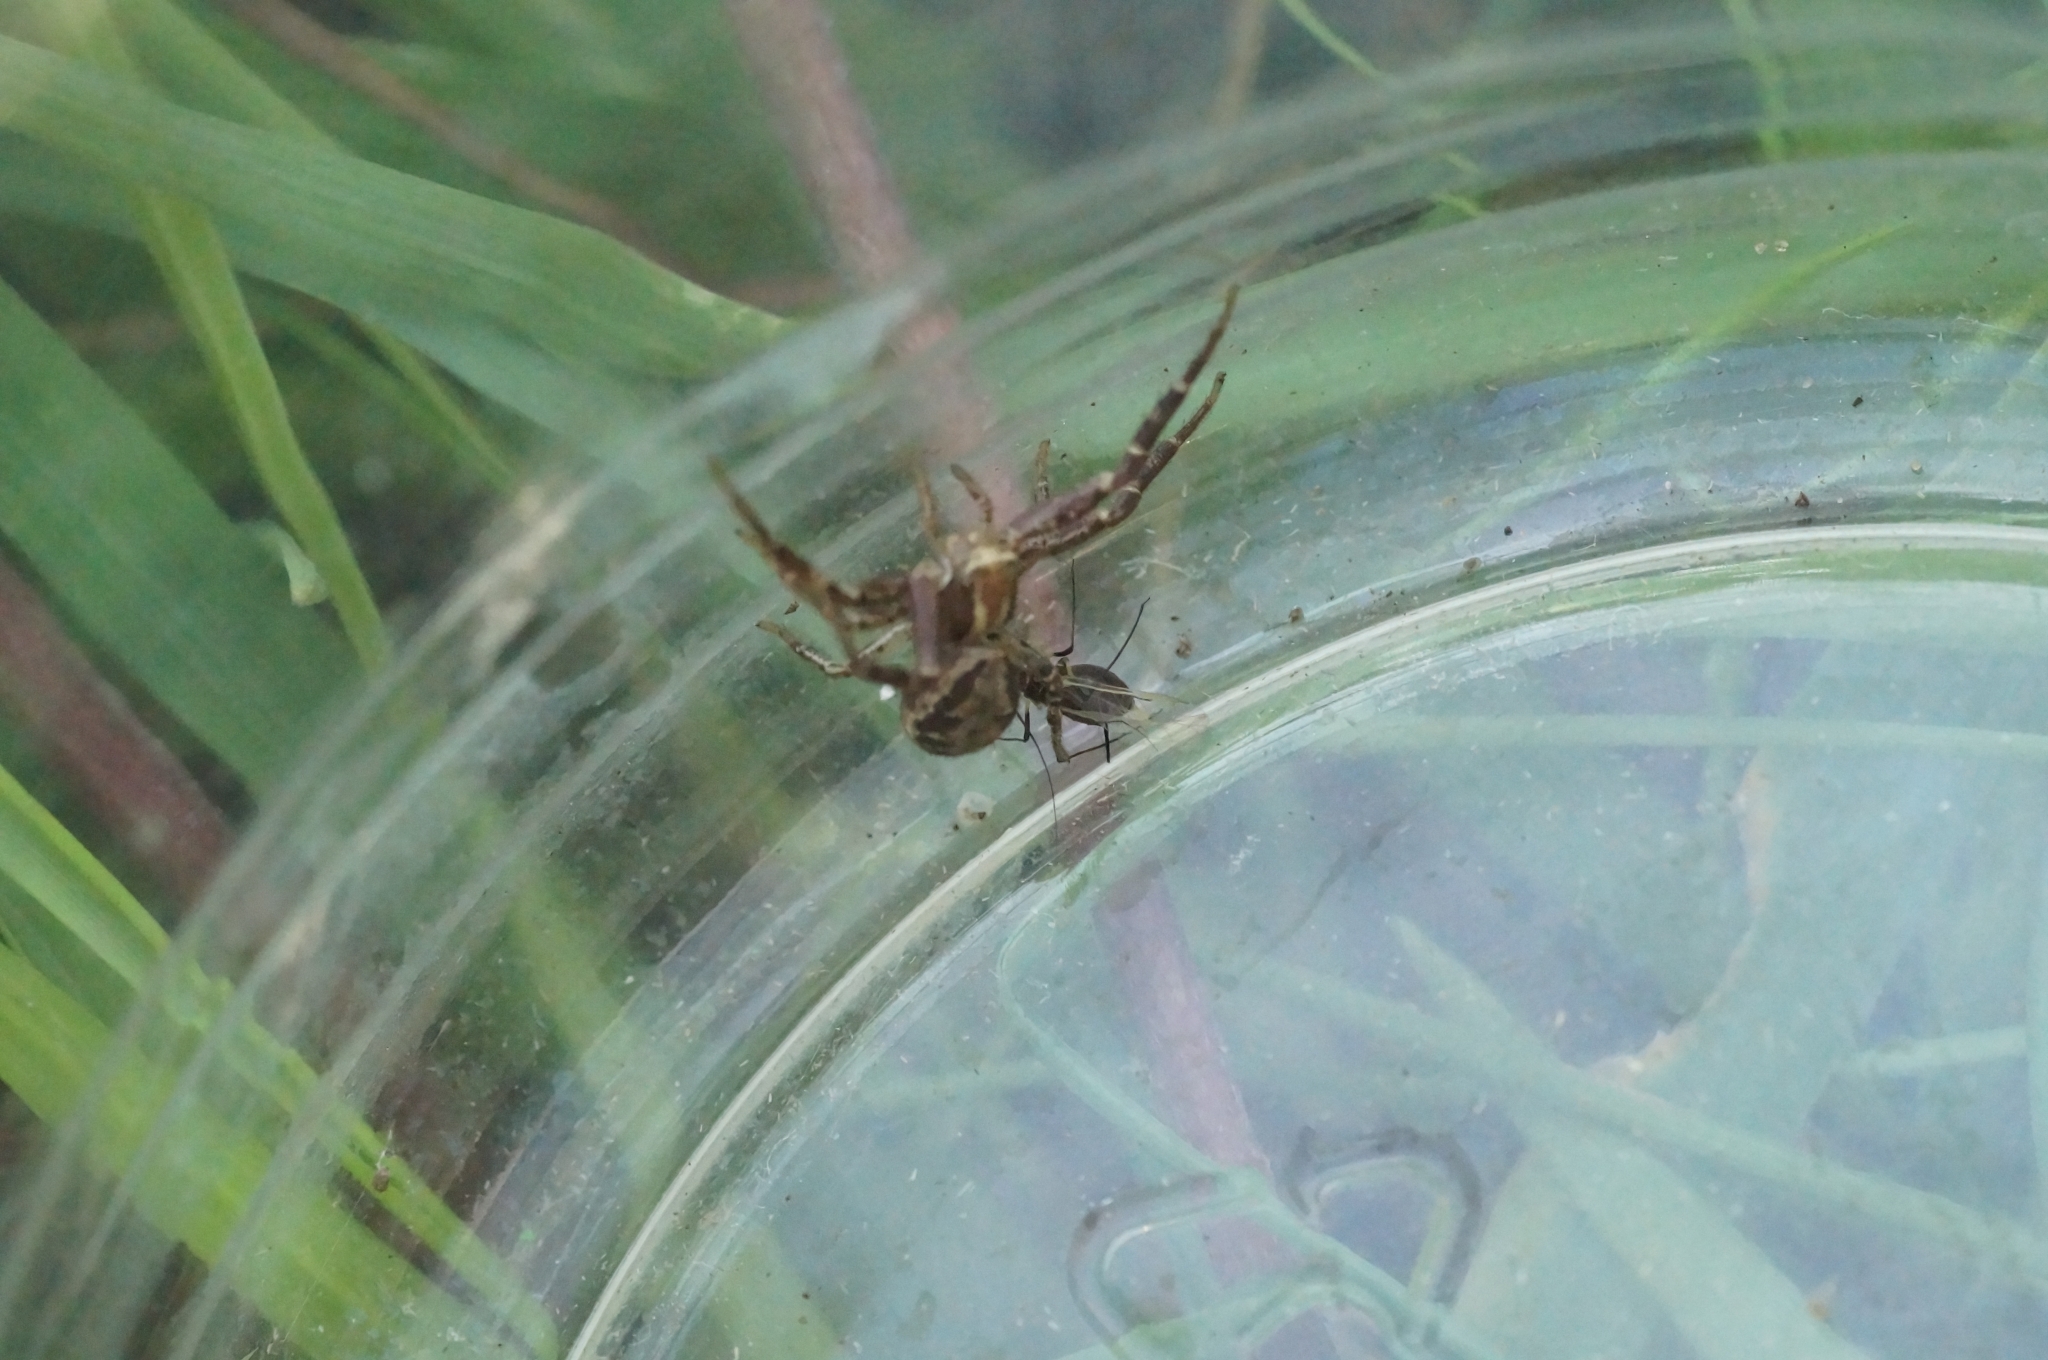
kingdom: Animalia
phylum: Arthropoda
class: Arachnida
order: Araneae
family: Thomisidae
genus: Xysticus
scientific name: Xysticus cristatus
